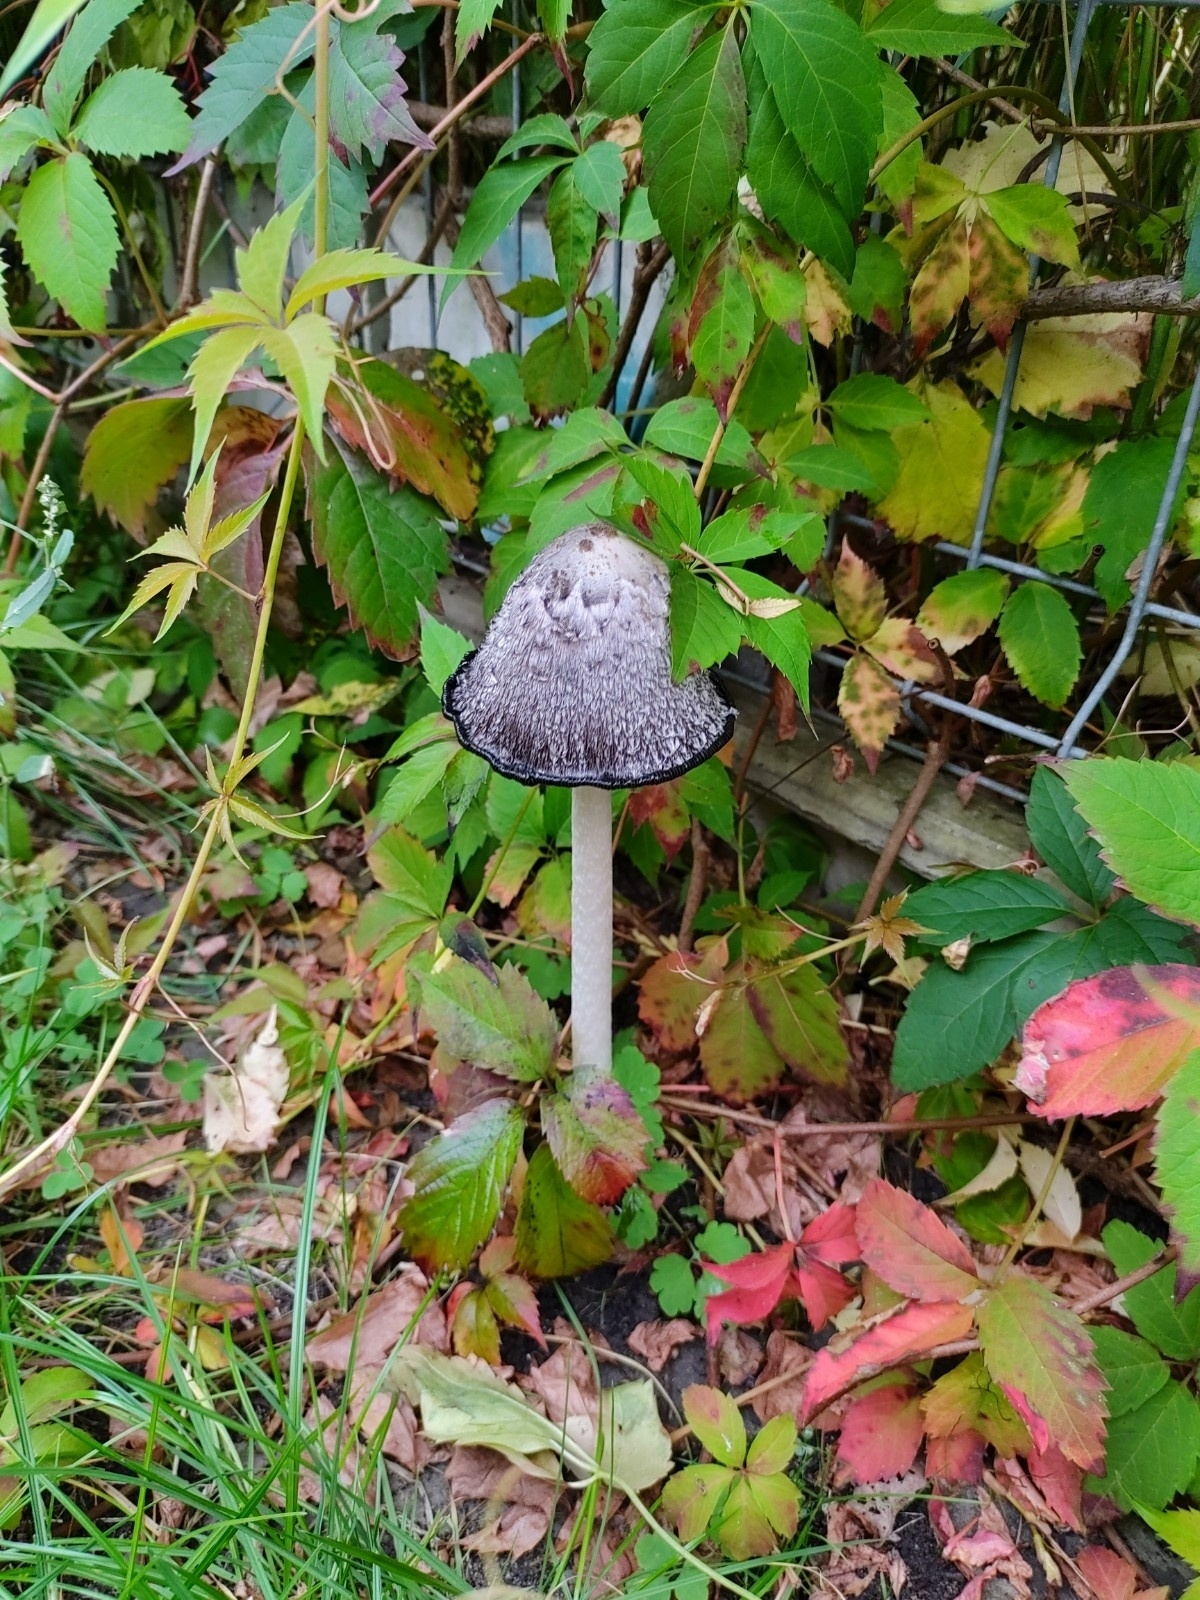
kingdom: Fungi
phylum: Basidiomycota
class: Agaricomycetes
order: Agaricales
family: Agaricaceae
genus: Coprinus
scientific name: Coprinus comatus
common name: Lawyer's wig
